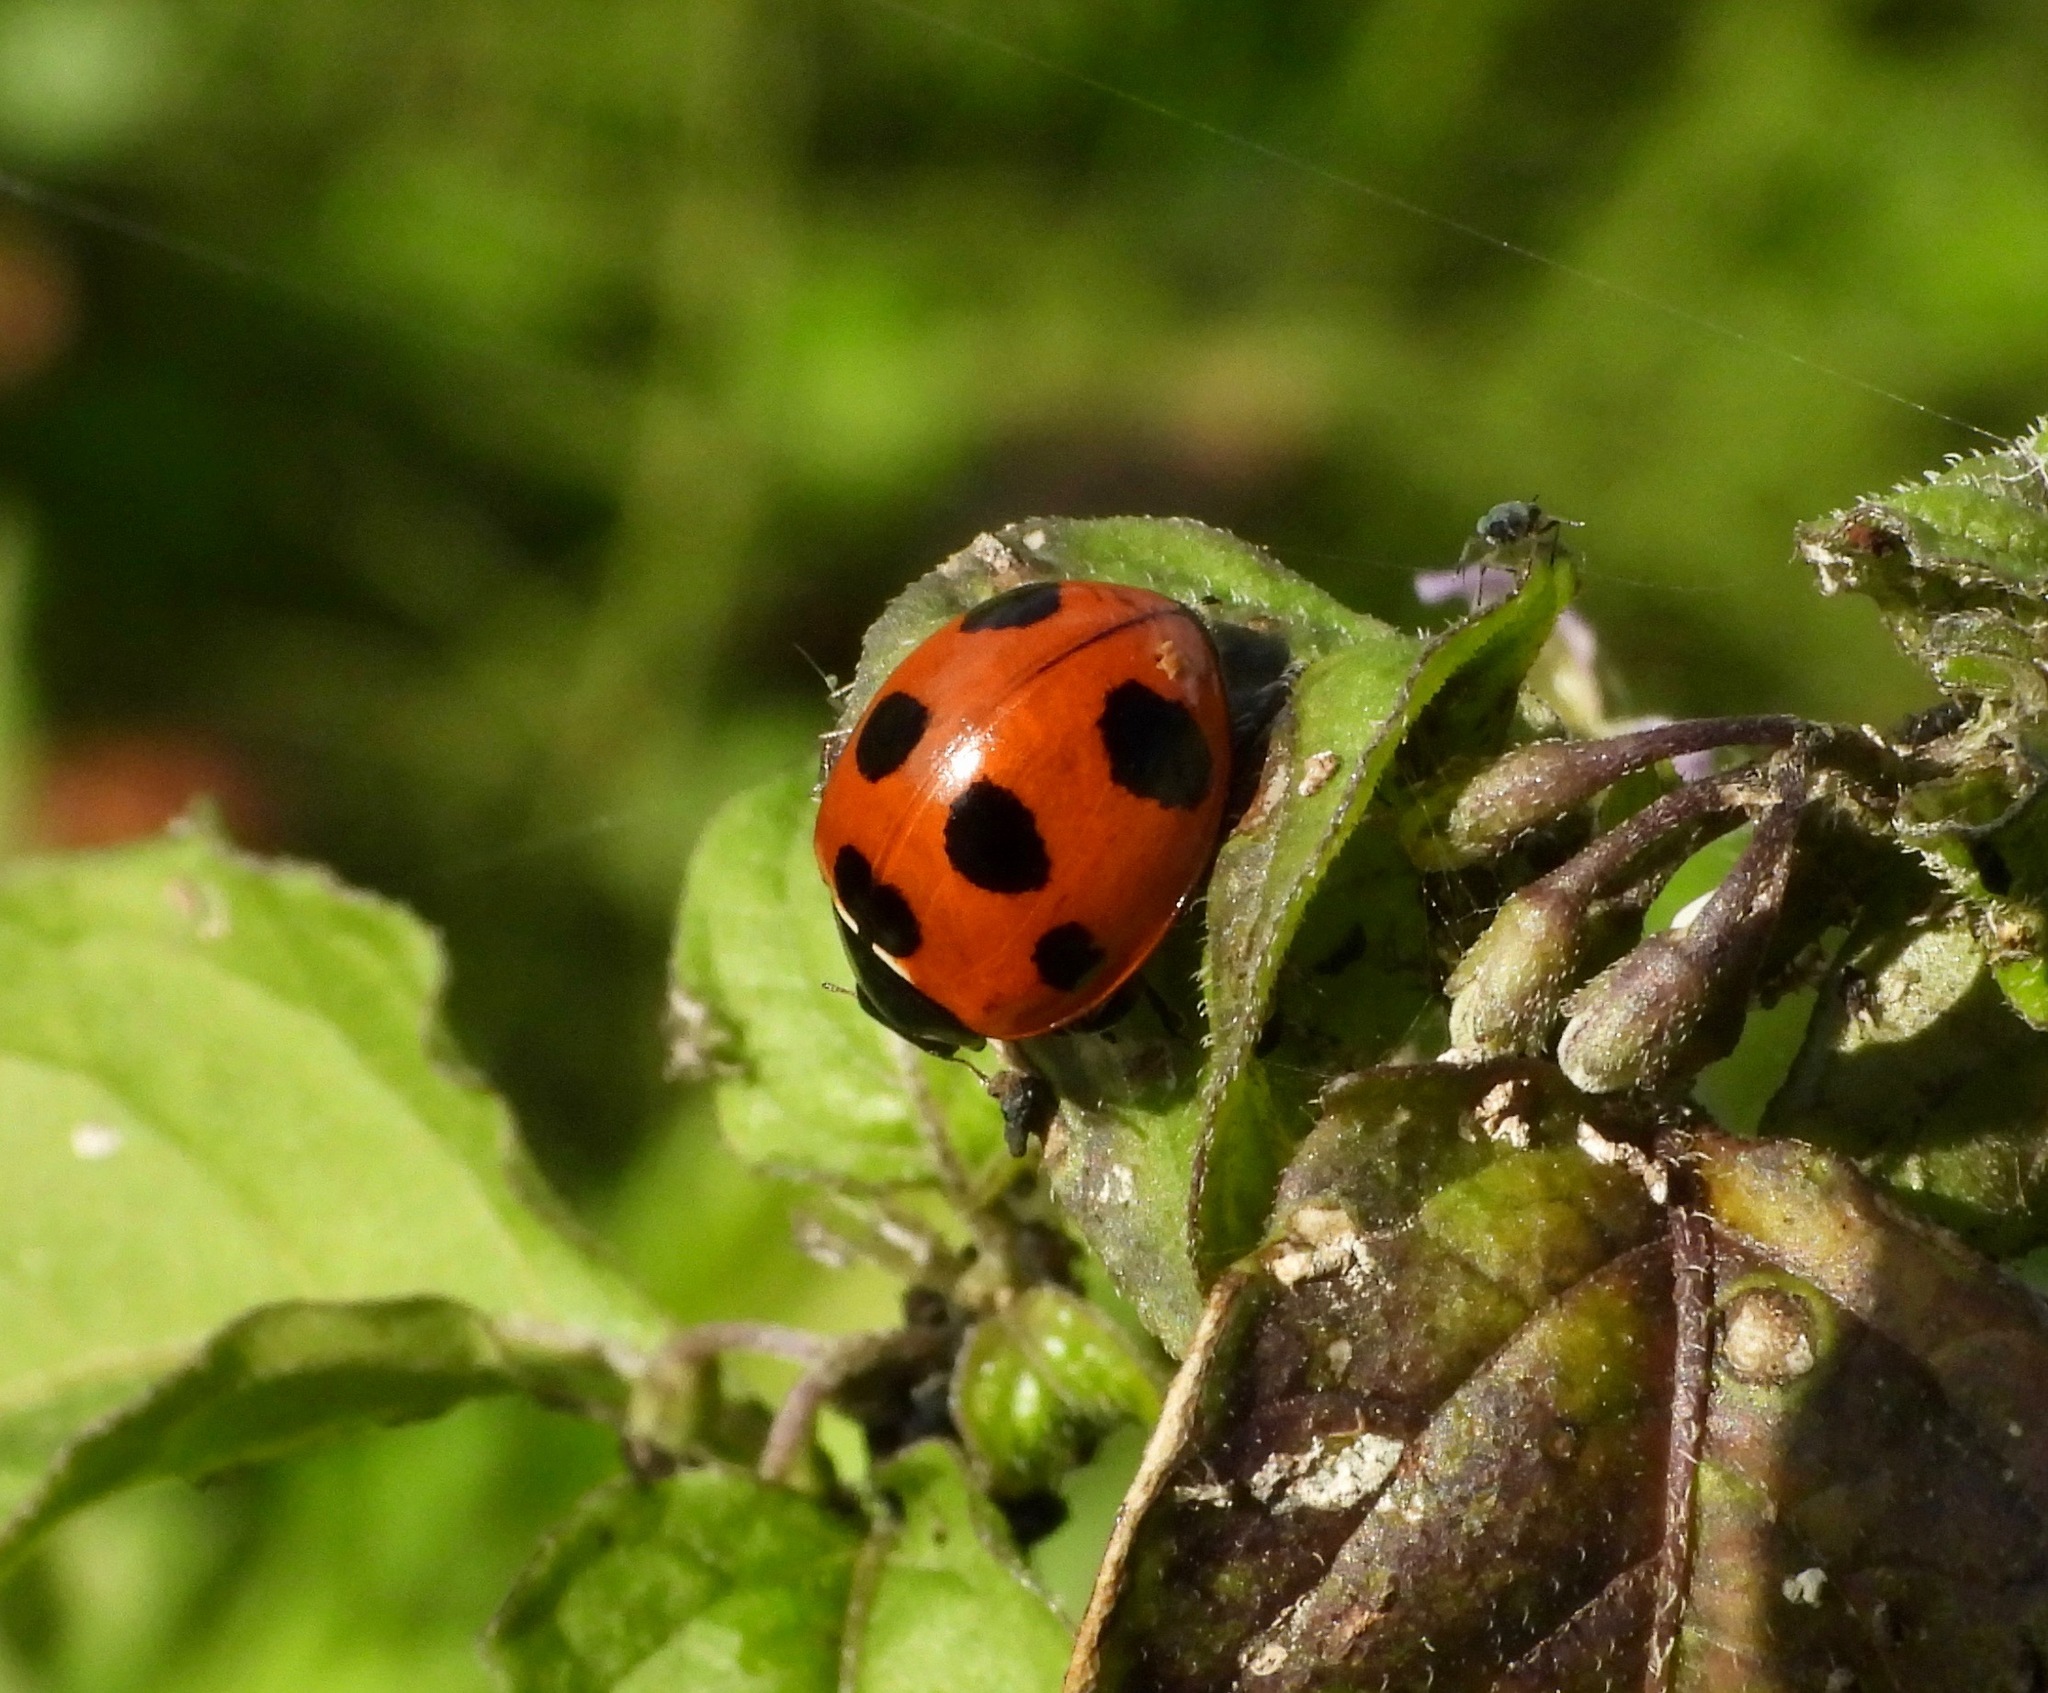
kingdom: Animalia
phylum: Arthropoda
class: Insecta
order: Coleoptera
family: Coccinellidae
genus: Coccinella
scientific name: Coccinella septempunctata
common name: Sevenspotted lady beetle
